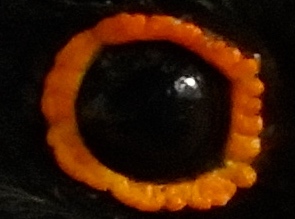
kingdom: Animalia
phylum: Chordata
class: Aves
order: Trogoniformes
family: Trogonidae
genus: Trogon
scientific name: Trogon elegans
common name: Elegant trogon
